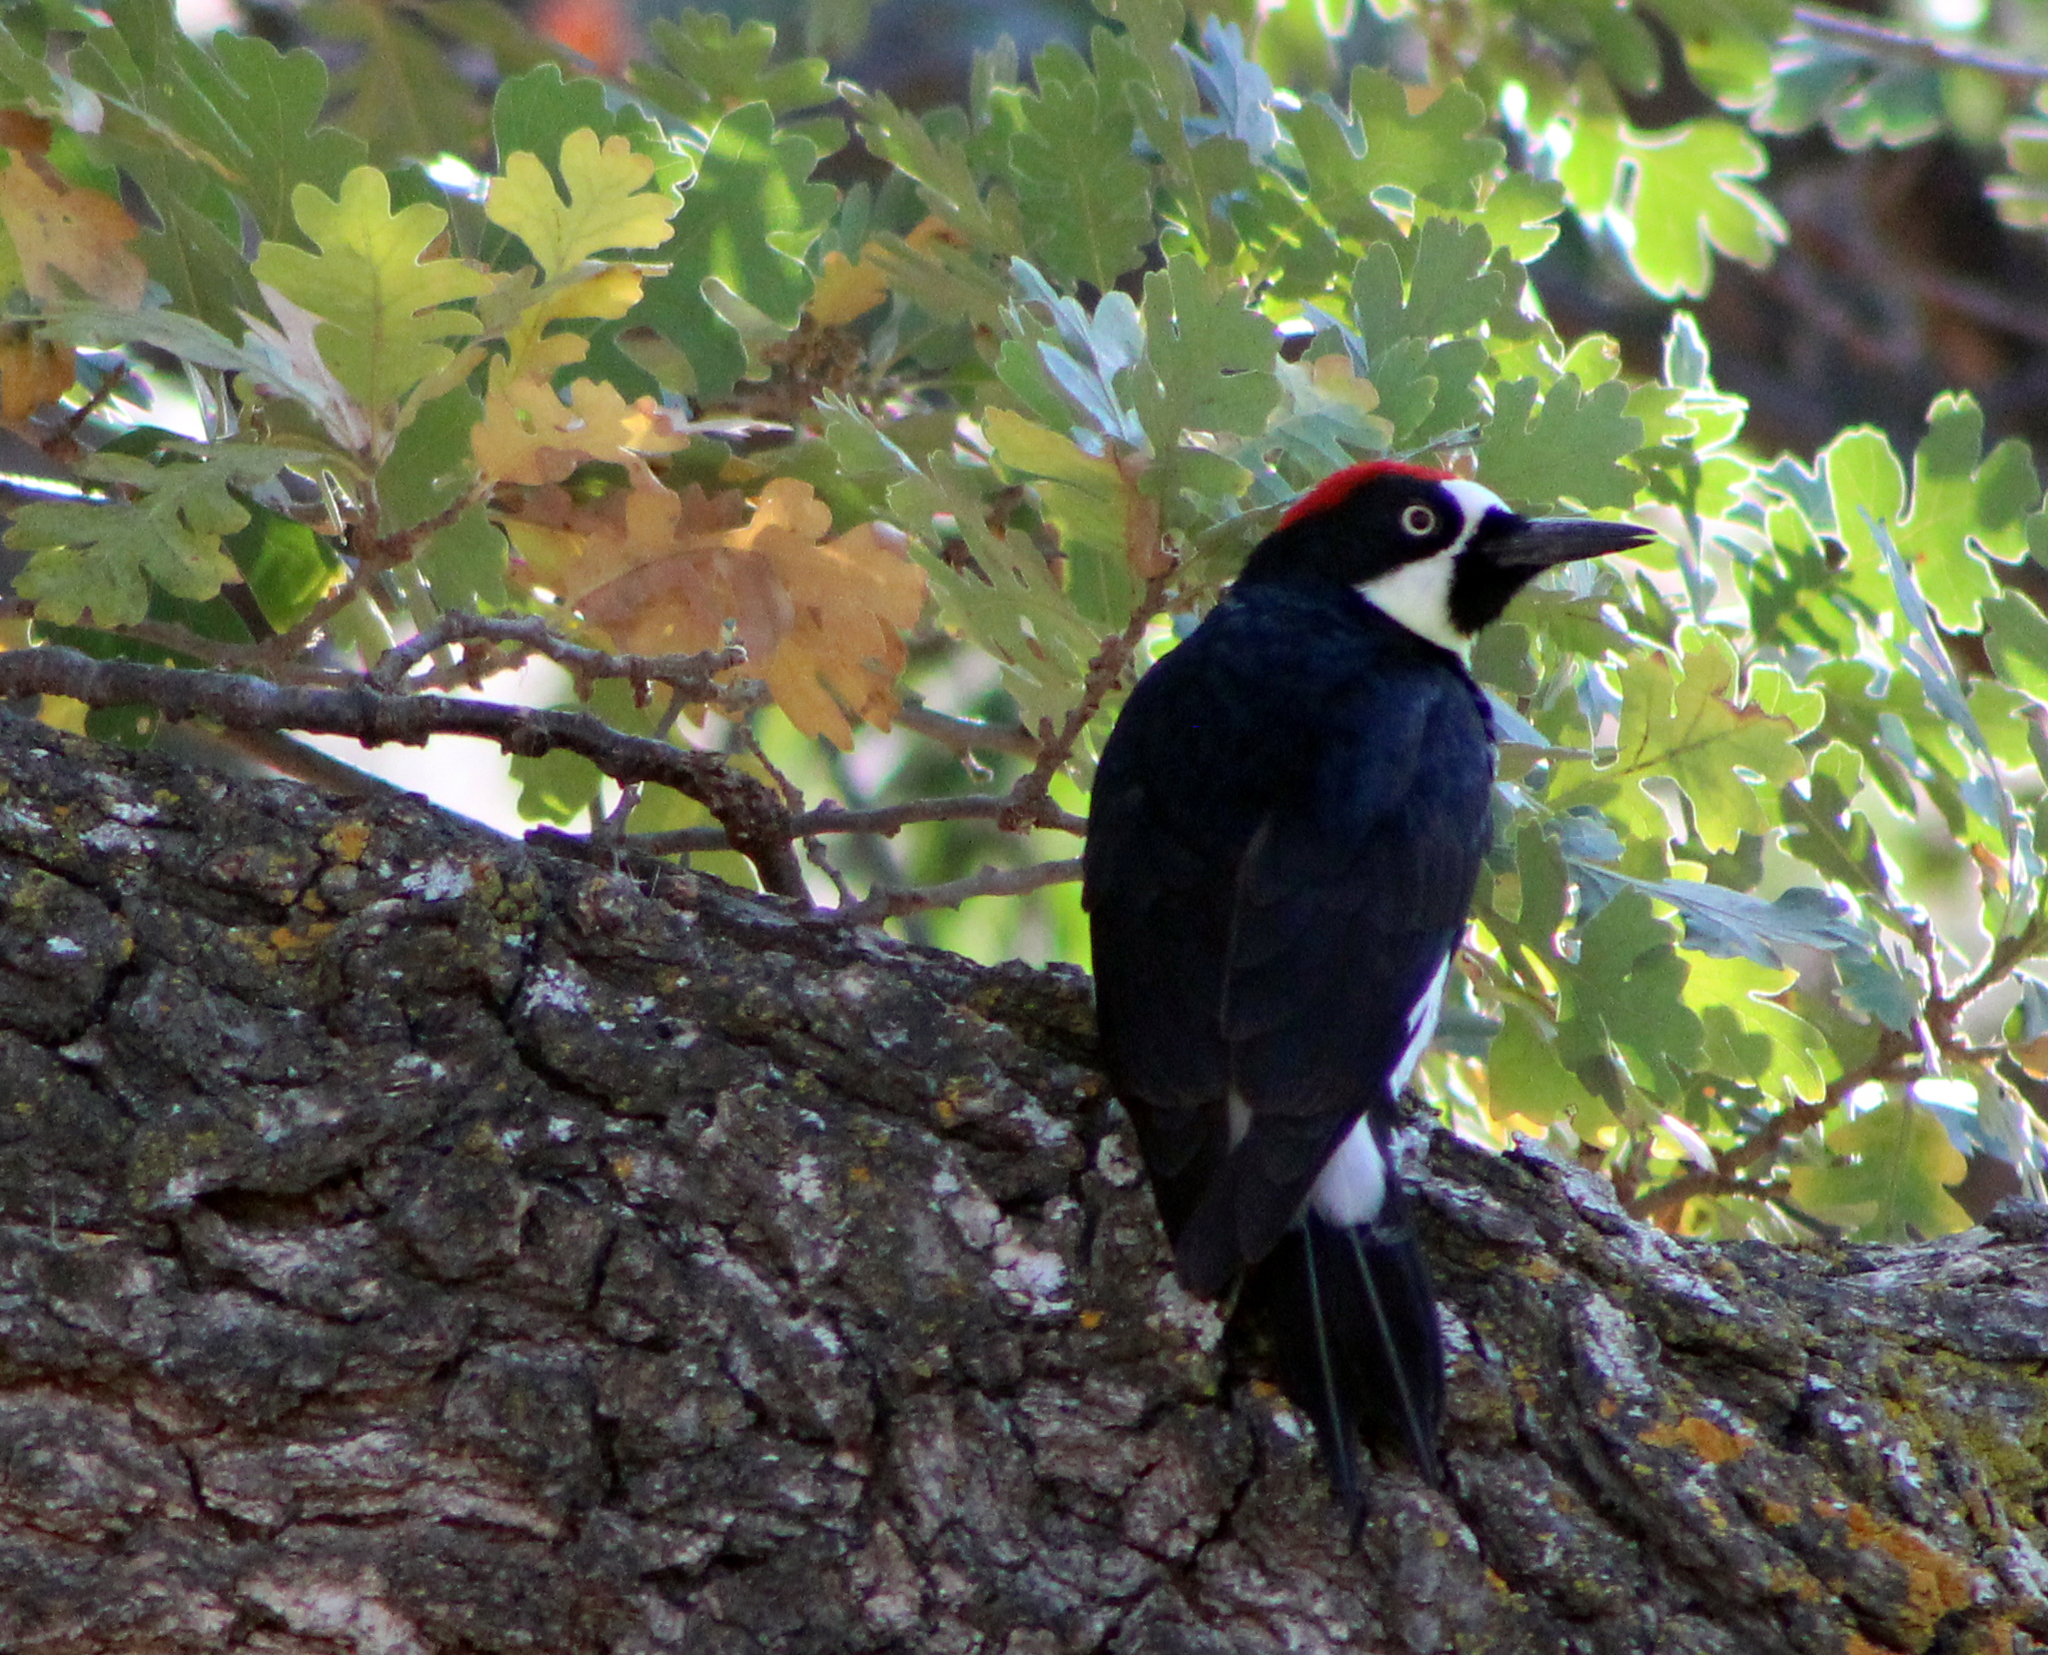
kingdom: Animalia
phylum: Chordata
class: Aves
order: Piciformes
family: Picidae
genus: Melanerpes
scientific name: Melanerpes formicivorus
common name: Acorn woodpecker
